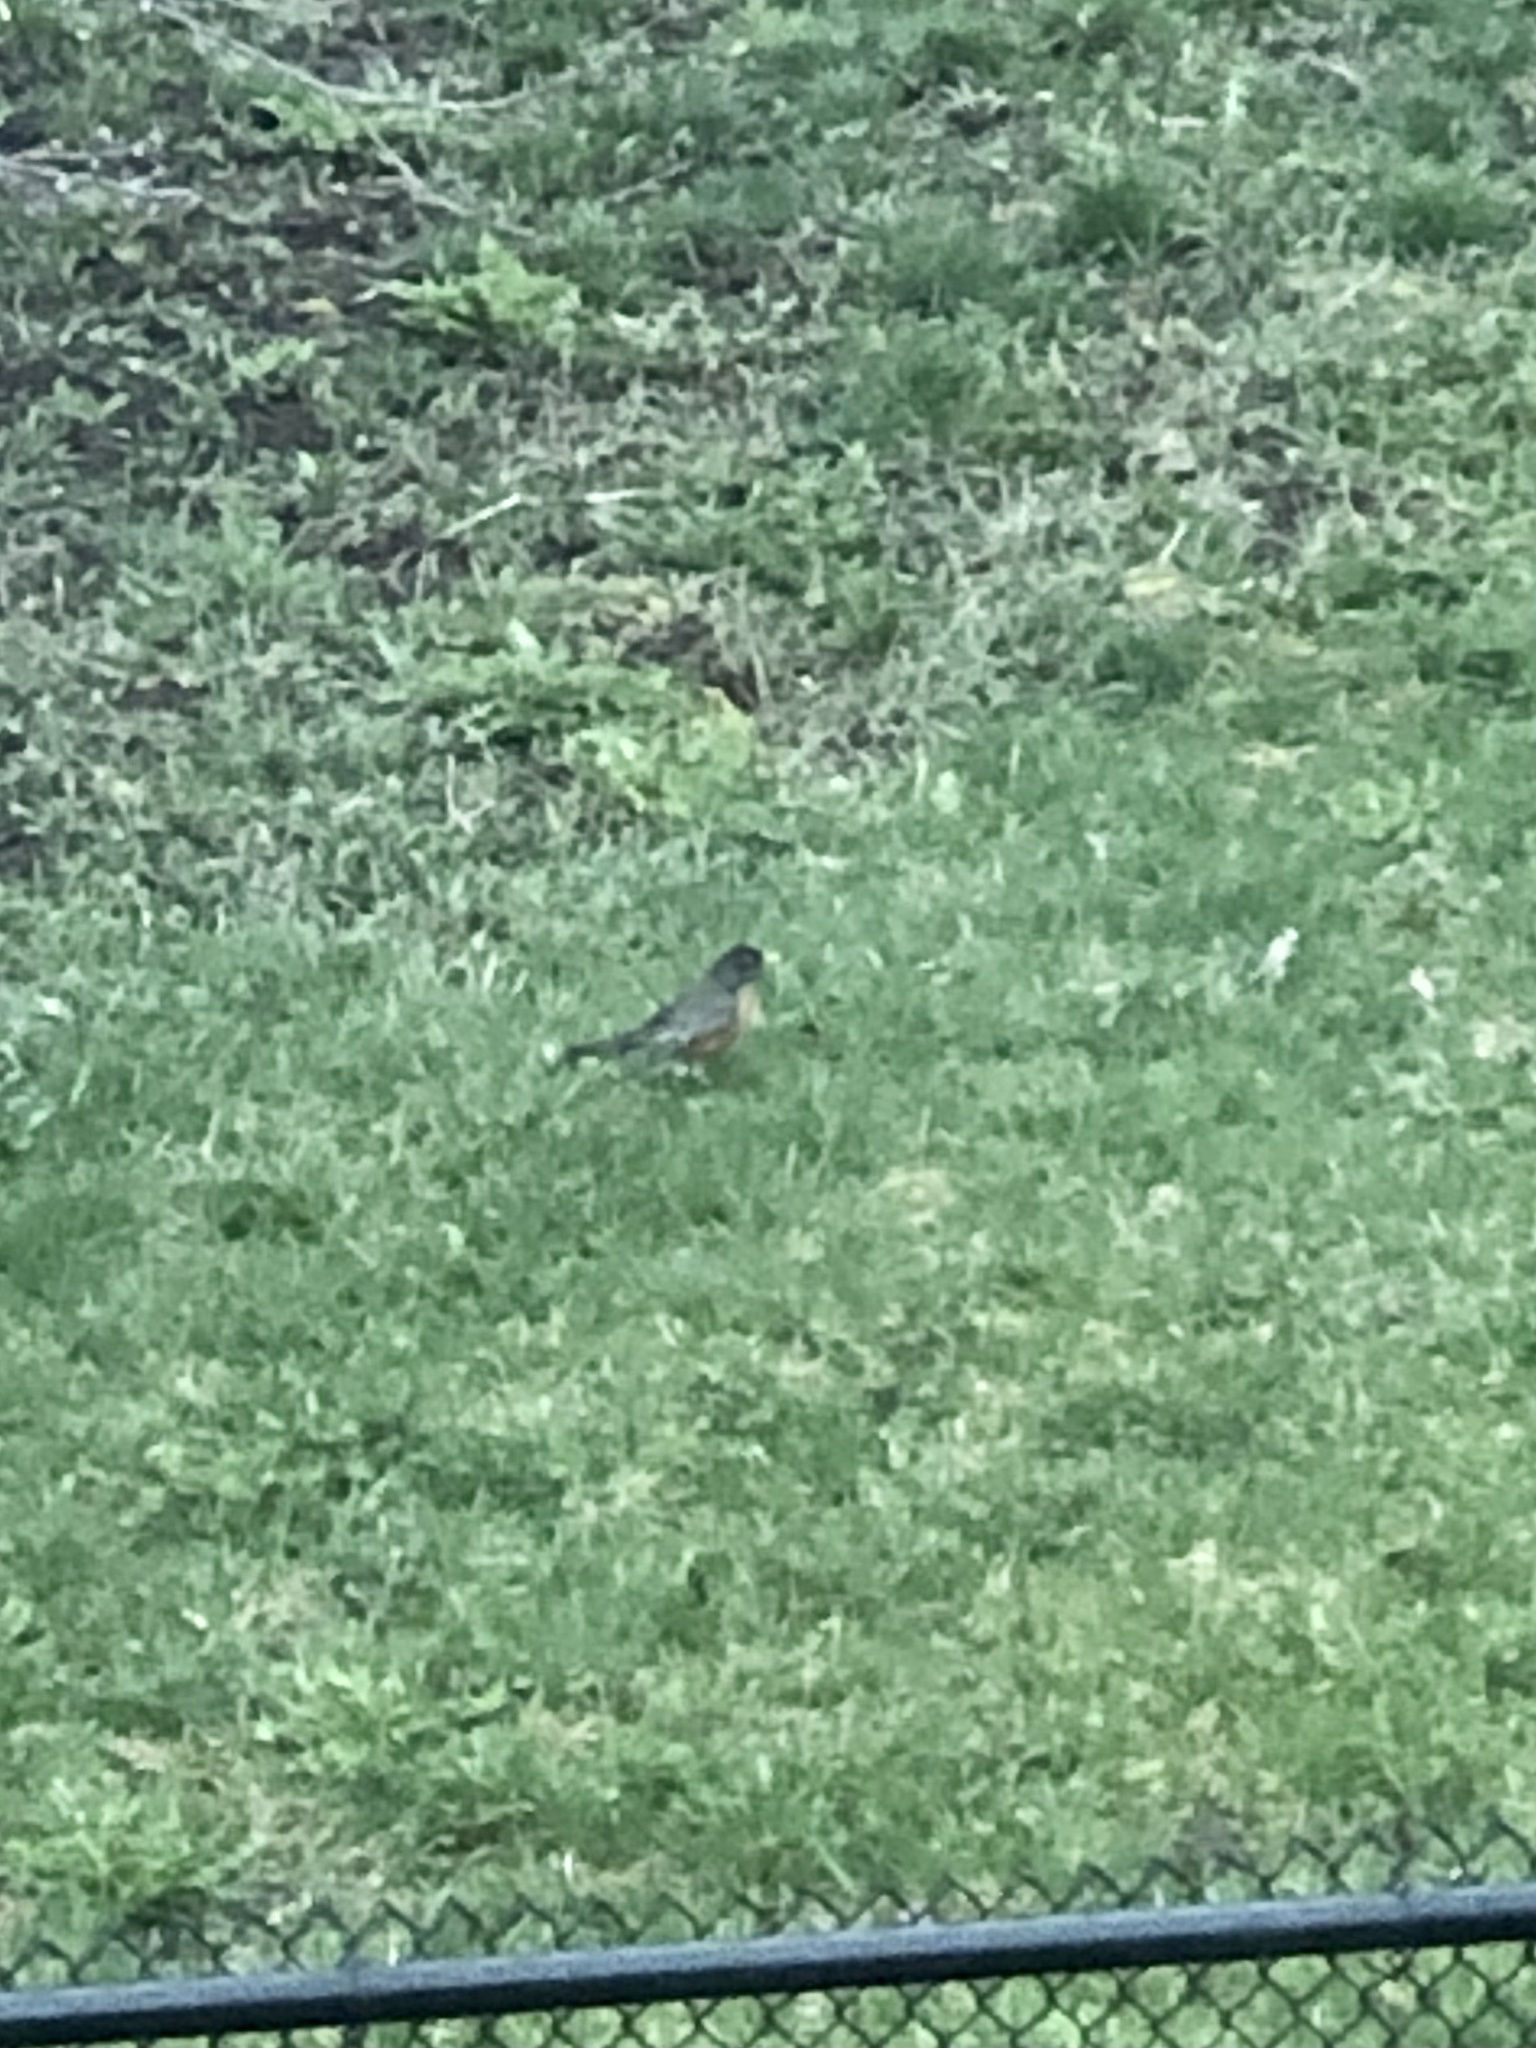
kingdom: Animalia
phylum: Chordata
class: Aves
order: Passeriformes
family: Turdidae
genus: Turdus
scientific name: Turdus migratorius
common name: American robin
